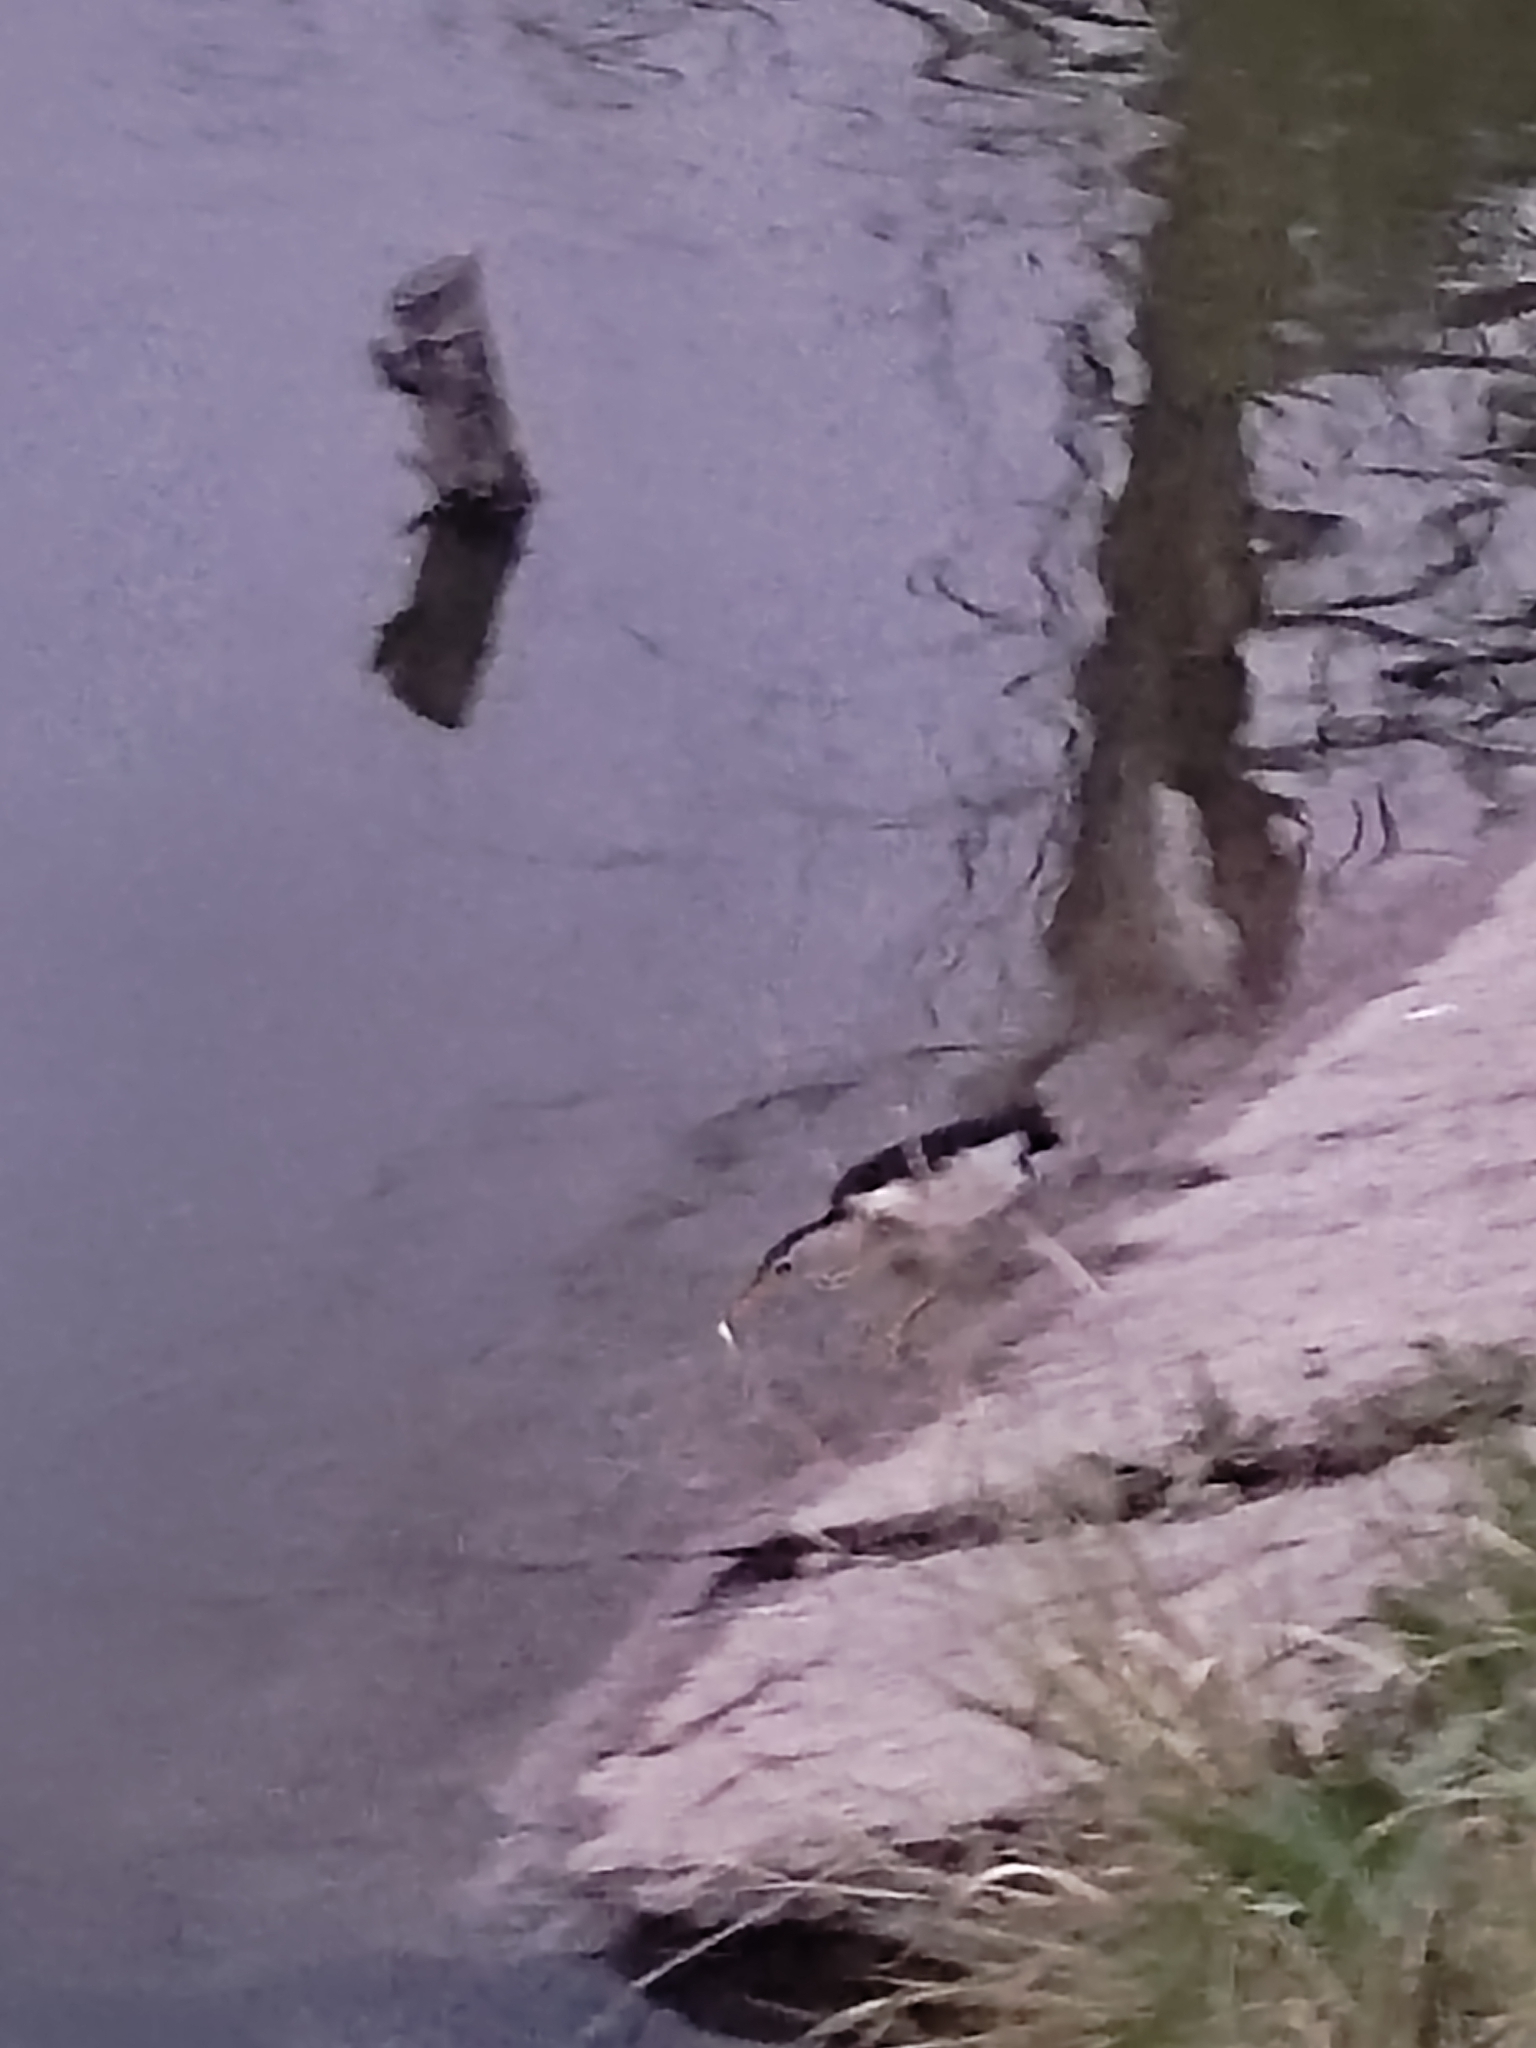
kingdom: Animalia
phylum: Chordata
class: Aves
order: Pelecaniformes
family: Ardeidae
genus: Ixobrychus
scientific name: Ixobrychus minutus
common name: Little bittern
